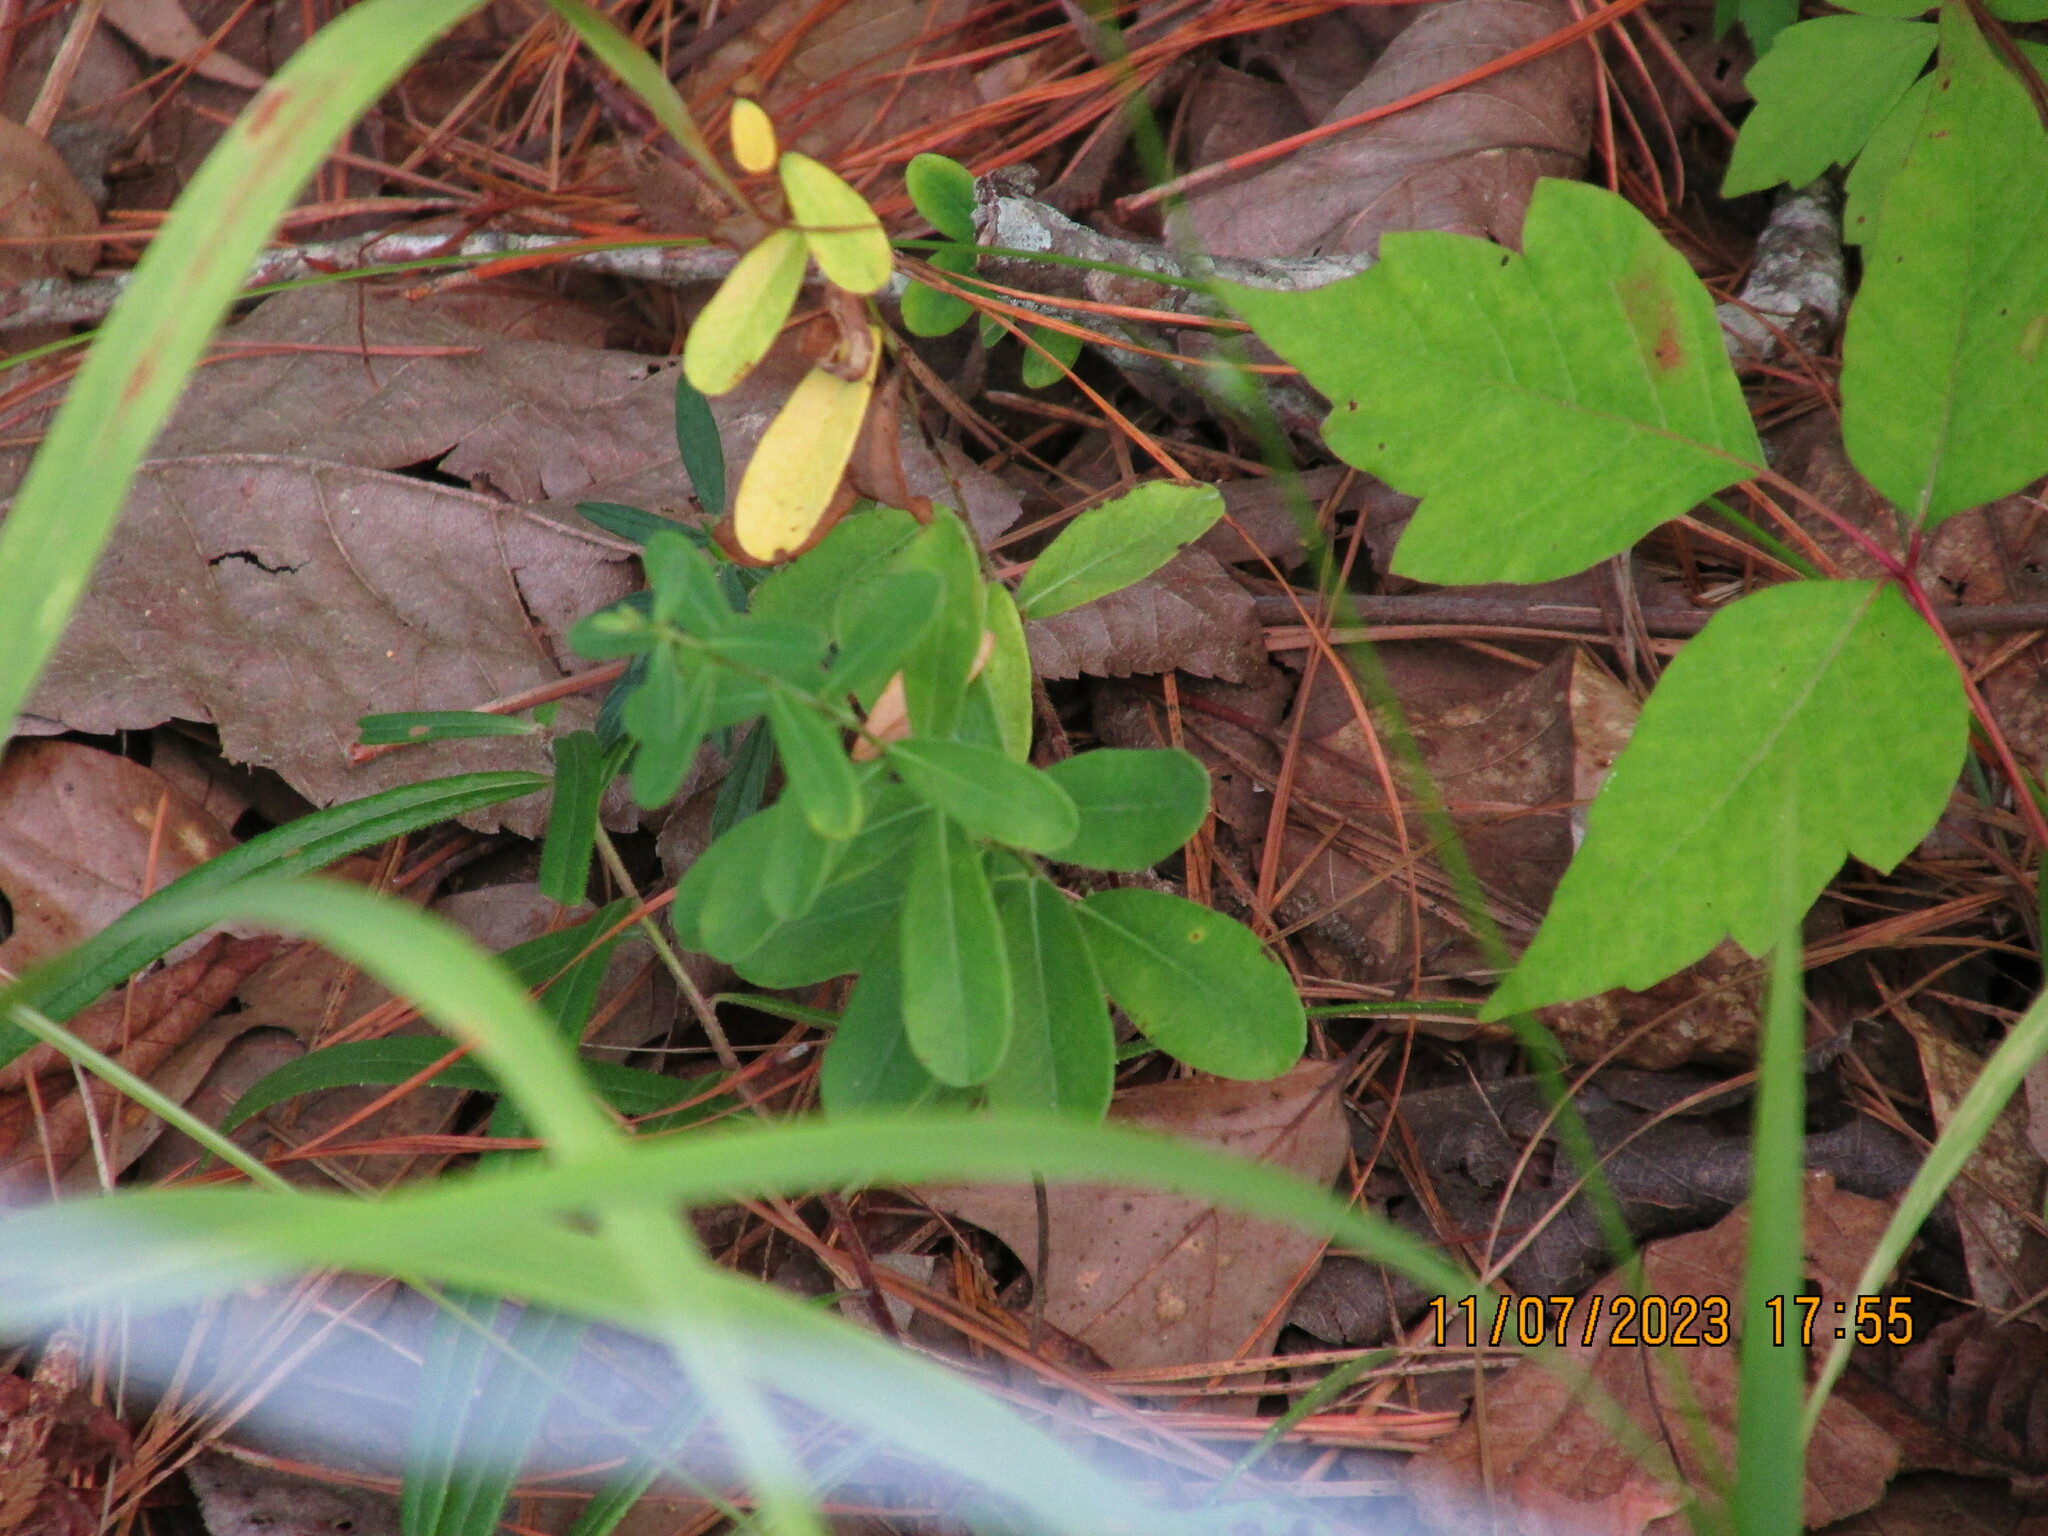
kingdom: Plantae
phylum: Tracheophyta
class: Magnoliopsida
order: Malpighiales
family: Euphorbiaceae
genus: Euphorbia
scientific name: Euphorbia corollata
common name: Flowering spurge
